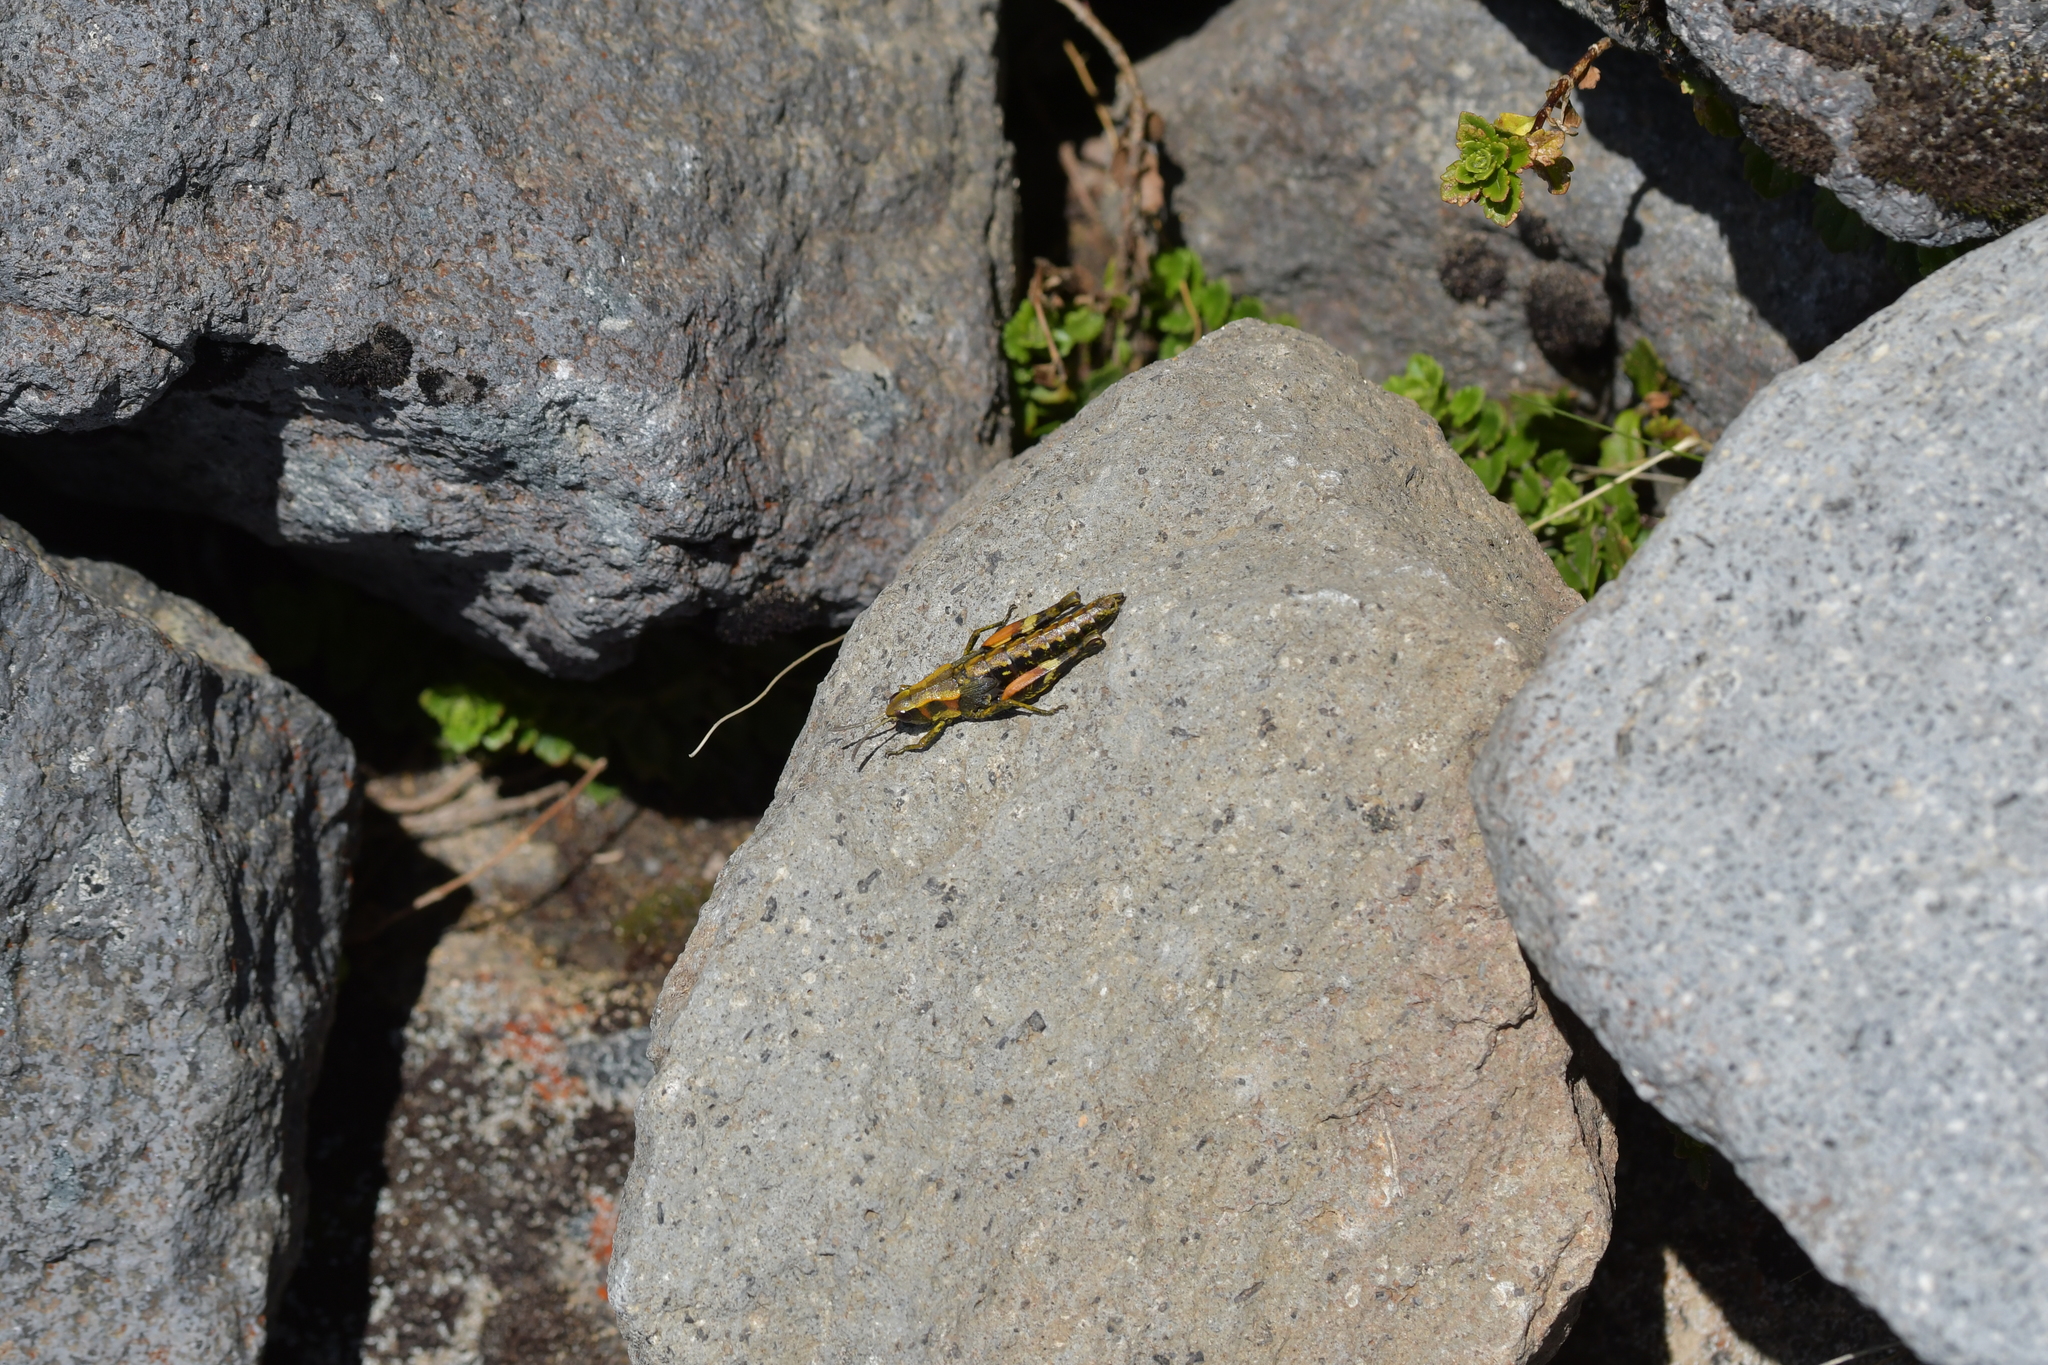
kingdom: Animalia
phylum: Arthropoda
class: Insecta
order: Orthoptera
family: Acrididae
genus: Sigaus
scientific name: Sigaus piliferus
